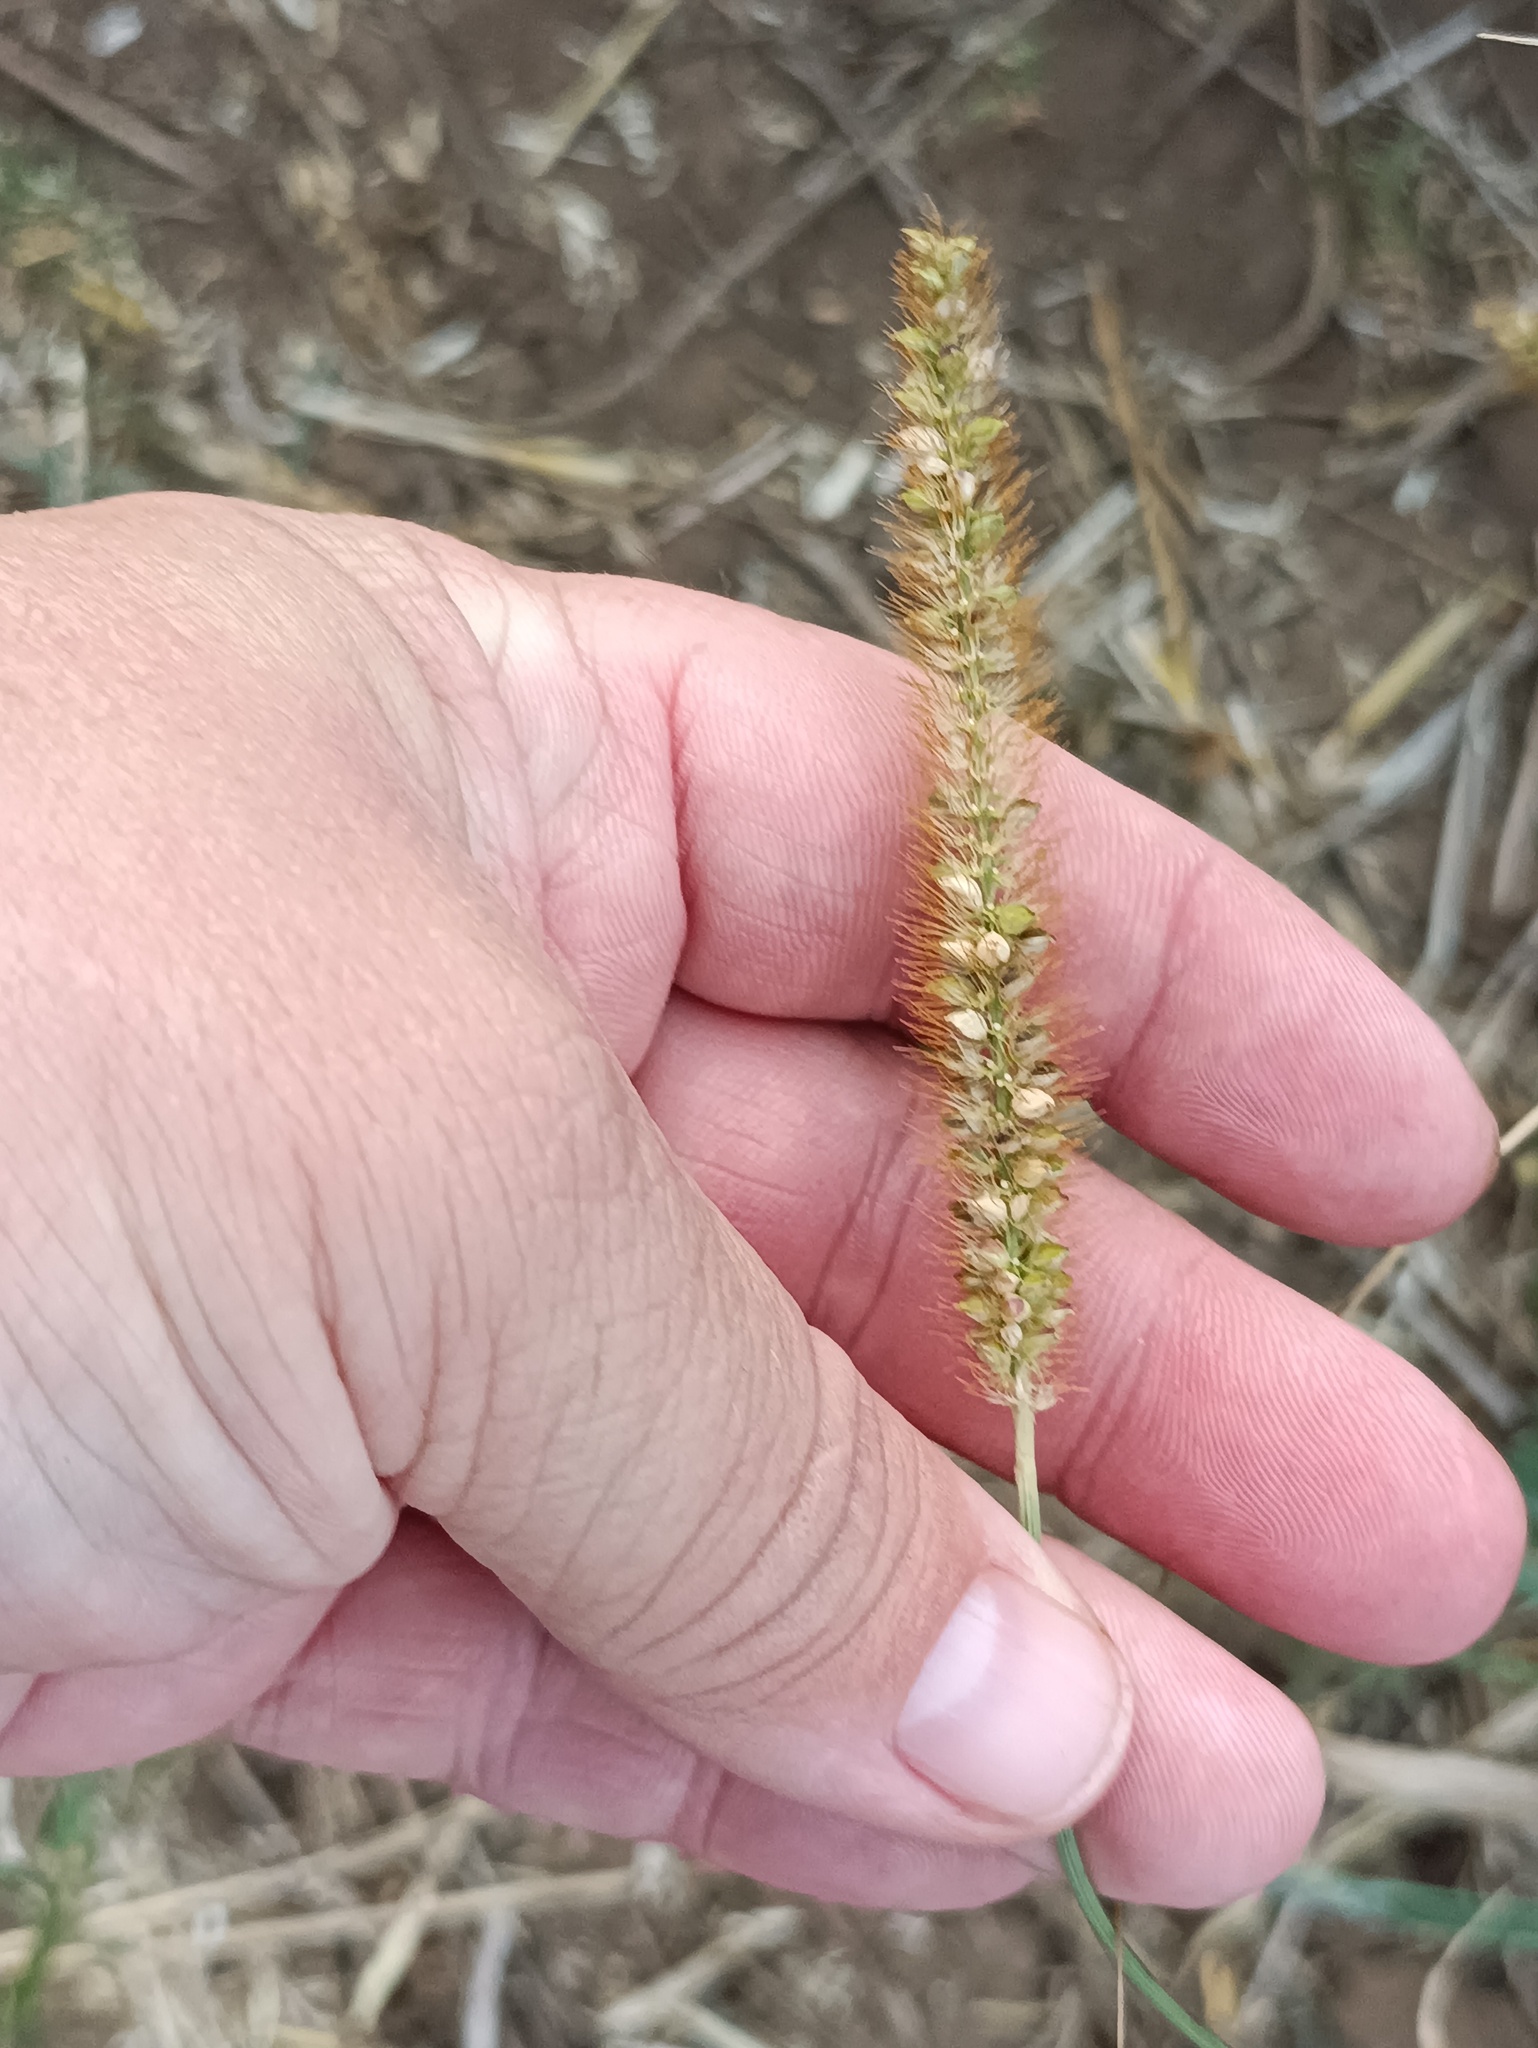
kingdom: Plantae
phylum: Tracheophyta
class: Liliopsida
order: Poales
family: Poaceae
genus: Setaria
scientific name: Setaria pumila
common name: Yellow bristle-grass
